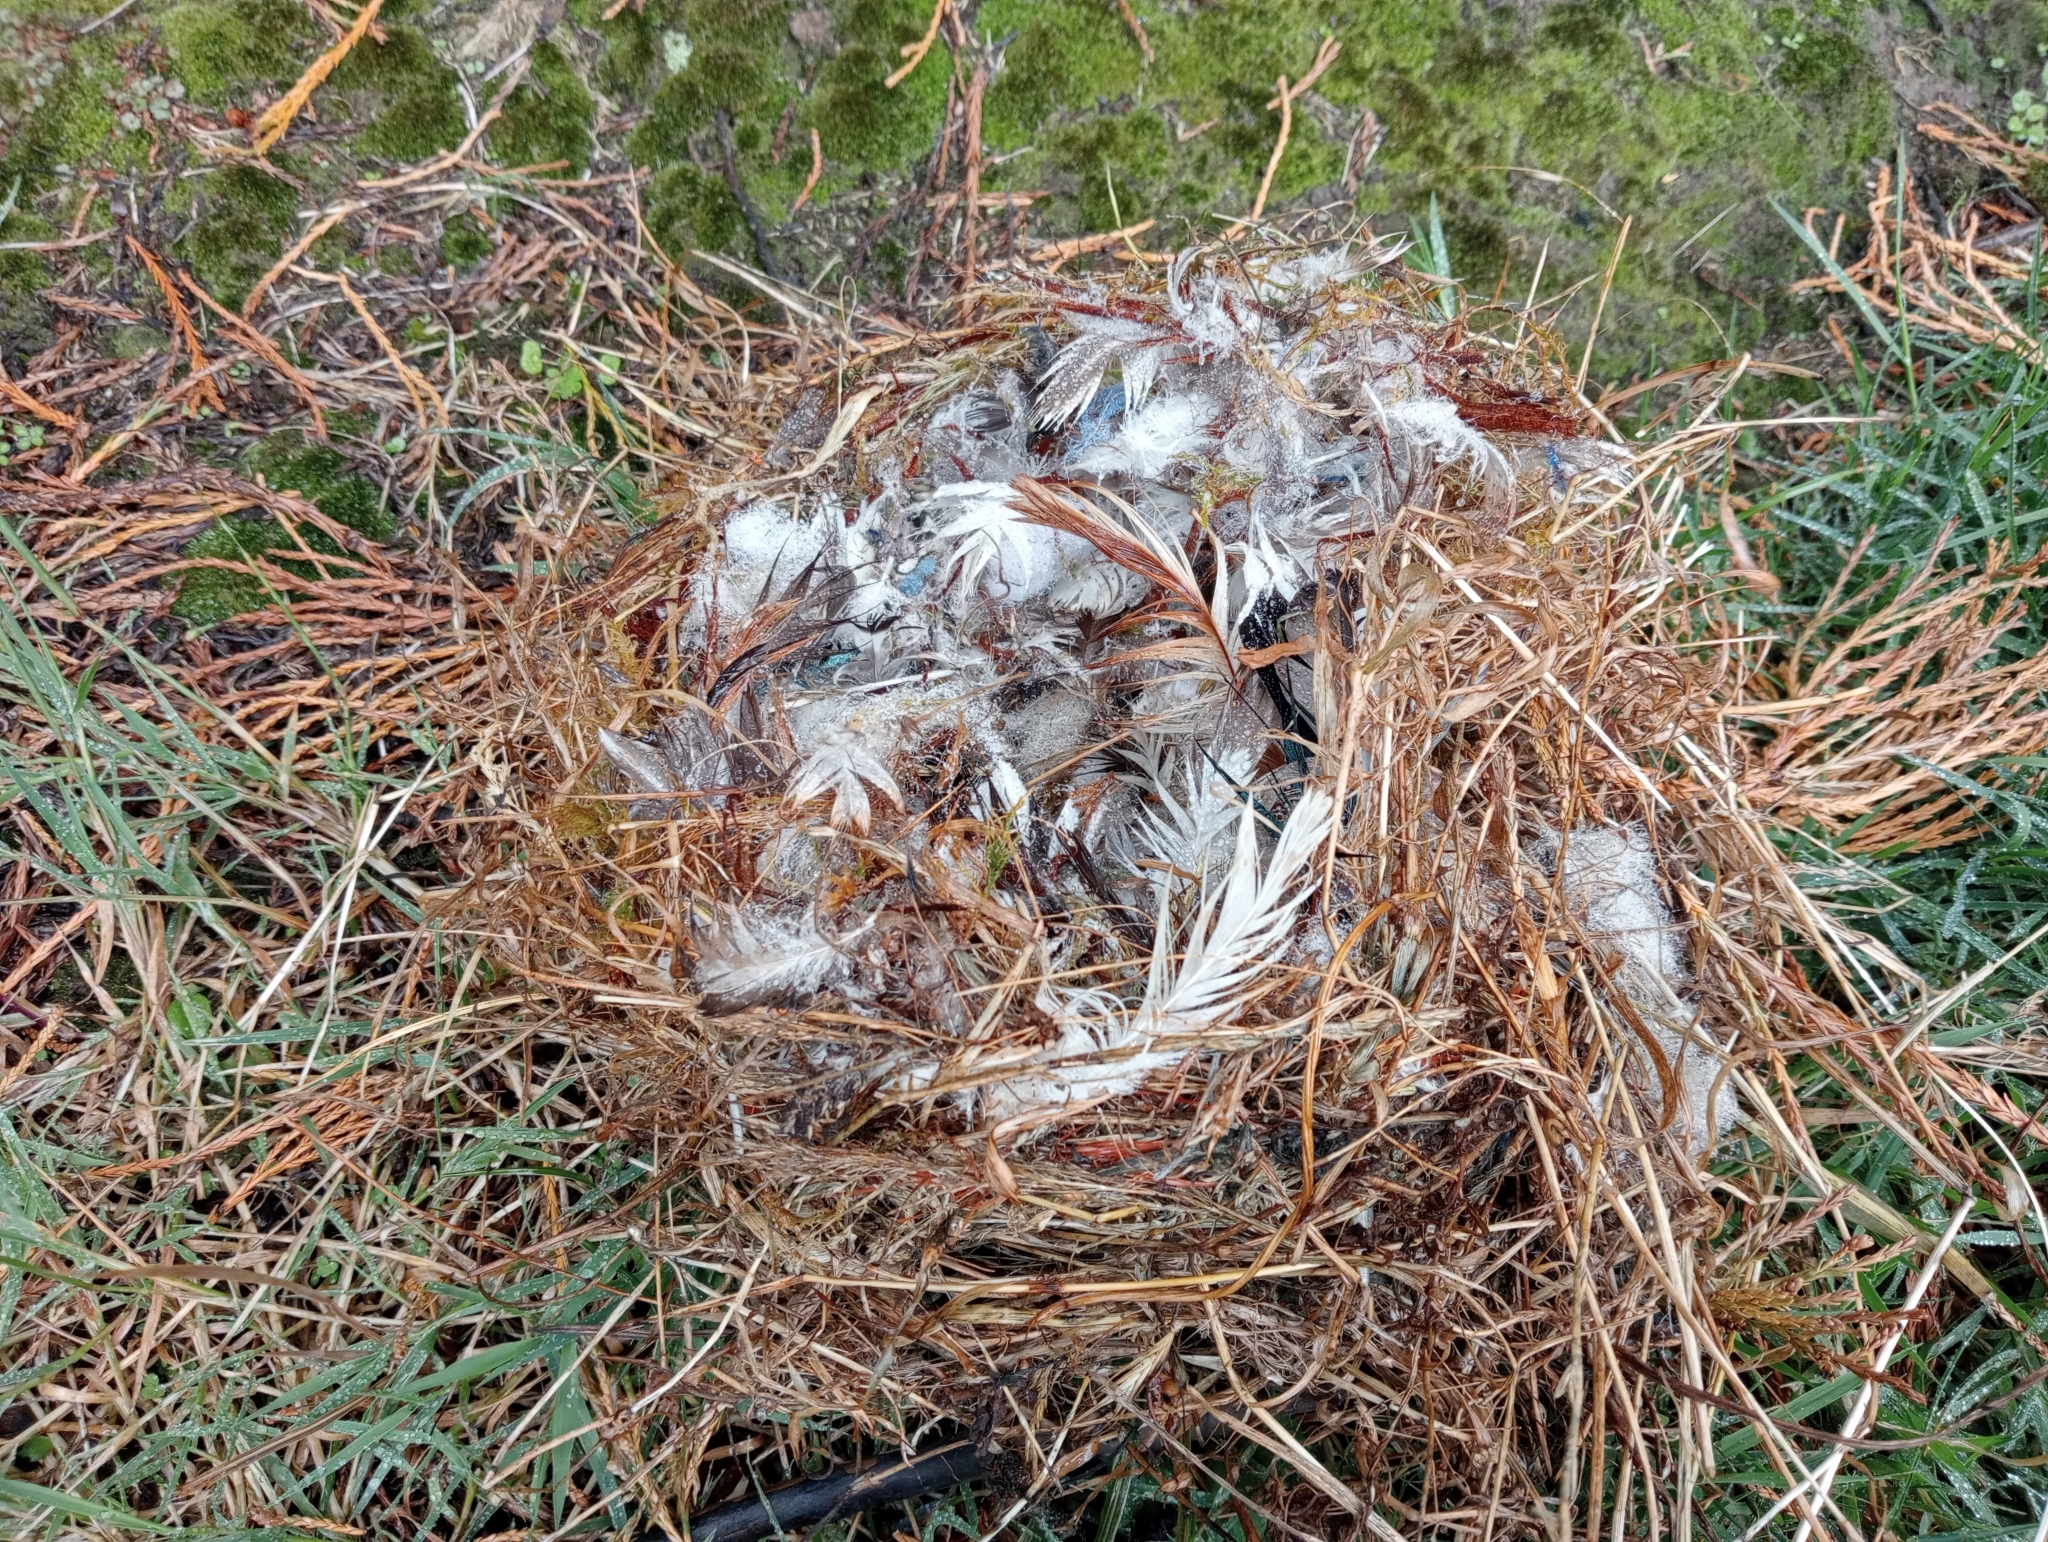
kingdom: Animalia
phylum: Chordata
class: Aves
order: Passeriformes
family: Passeridae
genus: Passer
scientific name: Passer domesticus
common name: House sparrow
